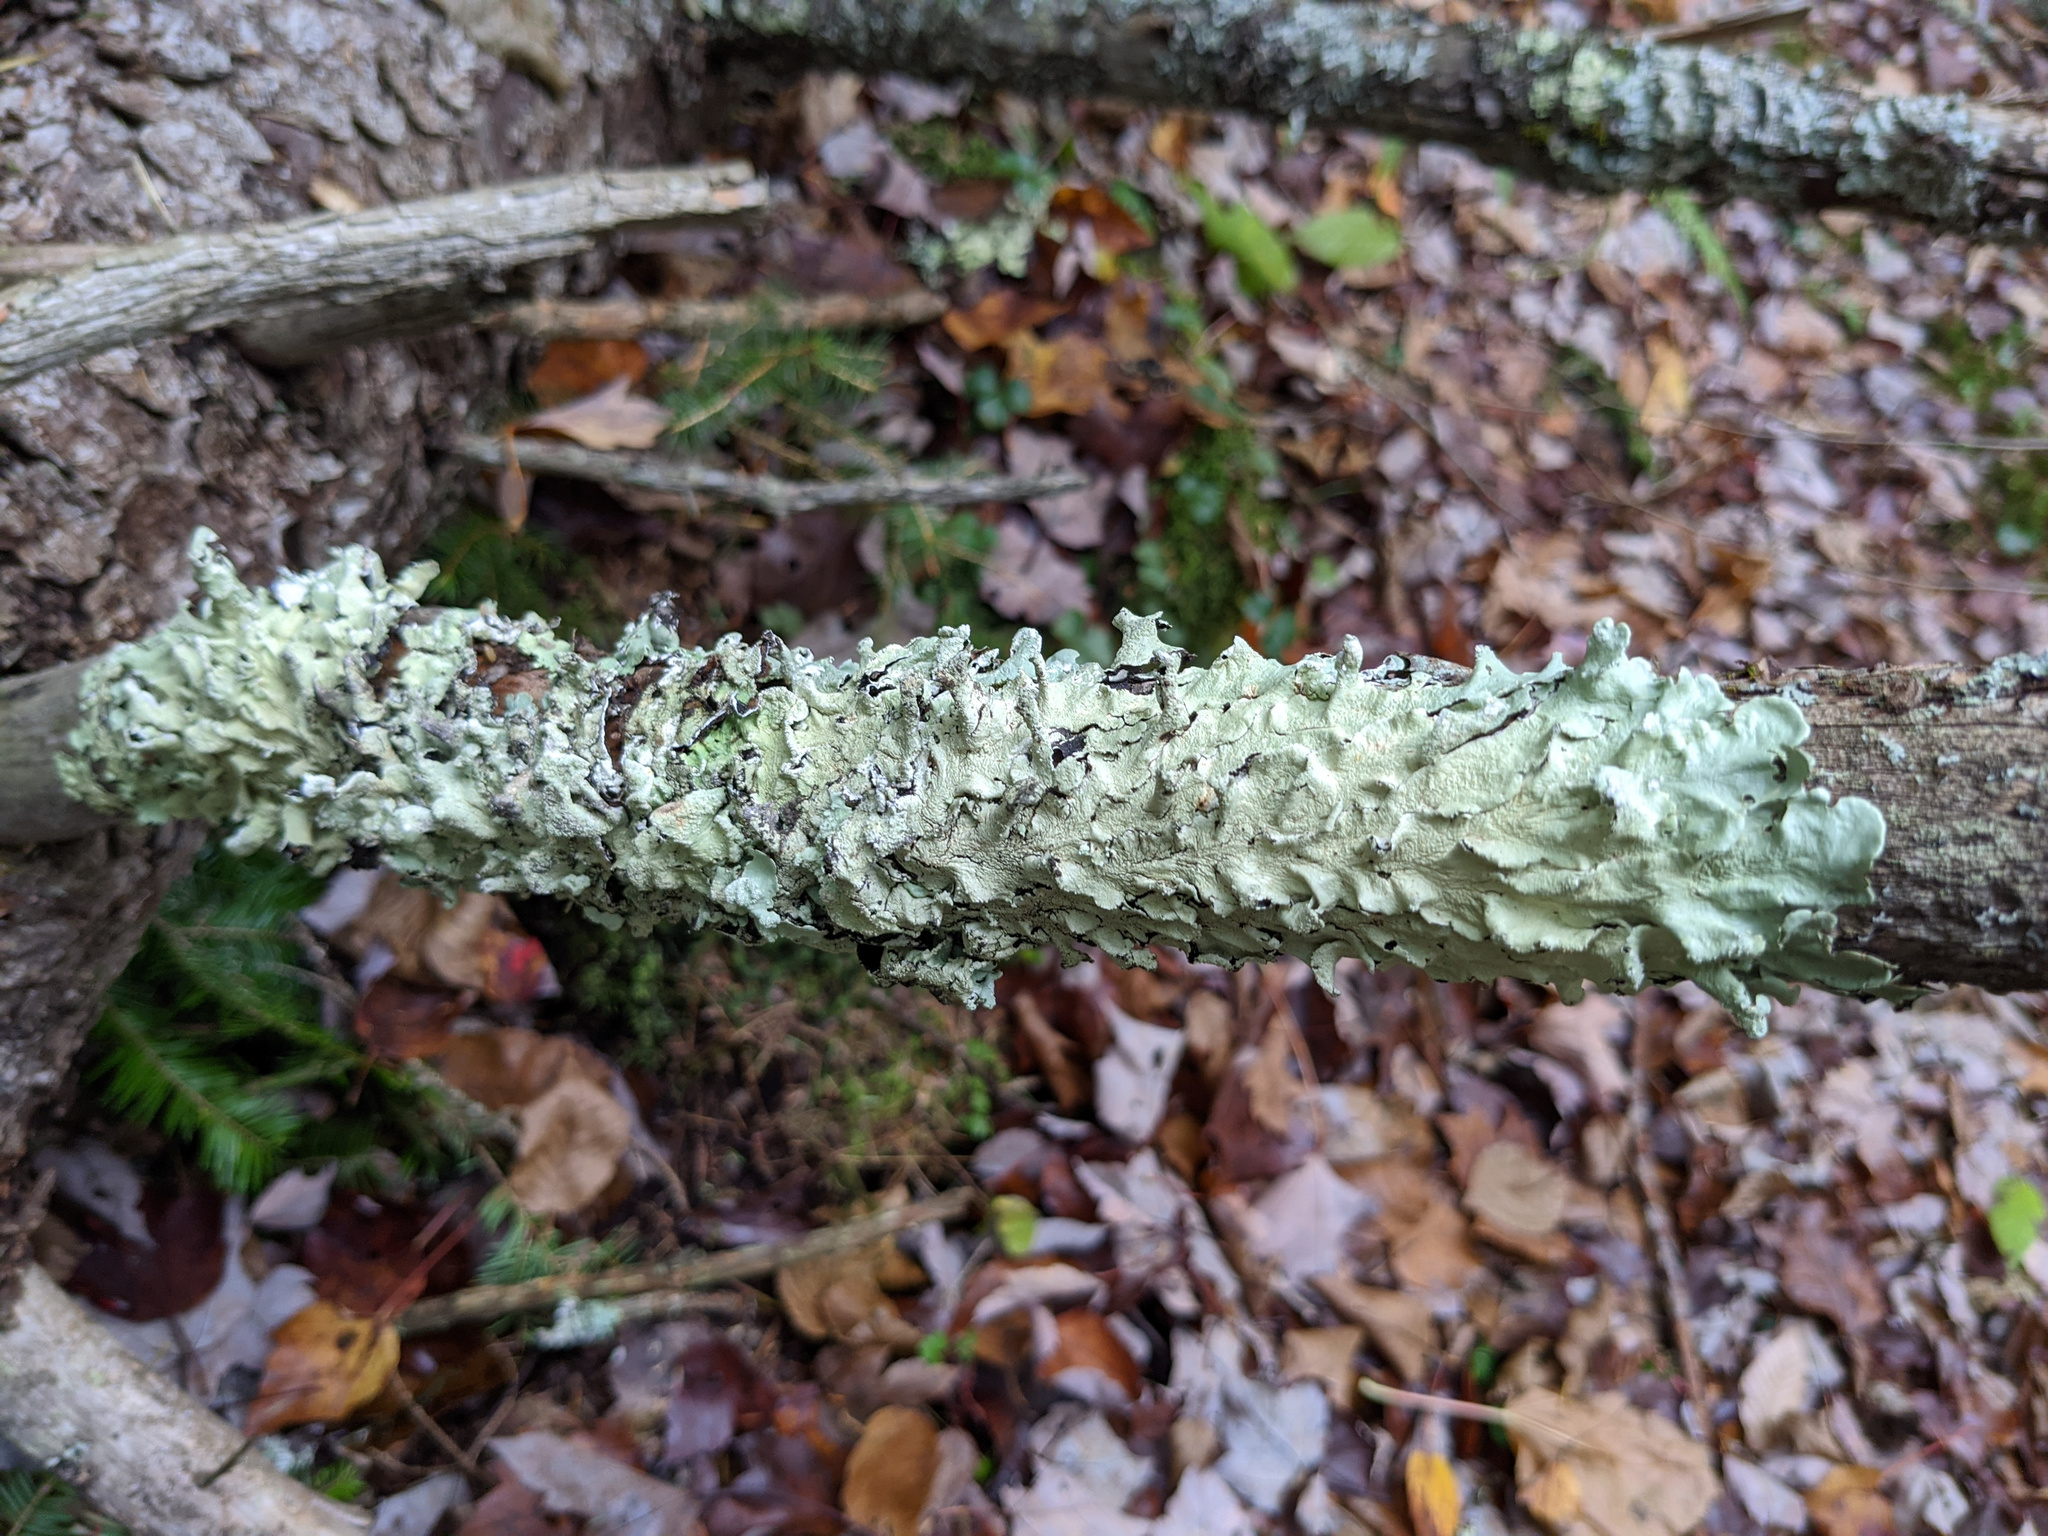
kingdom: Fungi
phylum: Ascomycota
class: Lecanoromycetes
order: Lecanorales
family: Parmeliaceae
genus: Flavoparmelia
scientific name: Flavoparmelia caperata
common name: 40-mile per hour lichen
